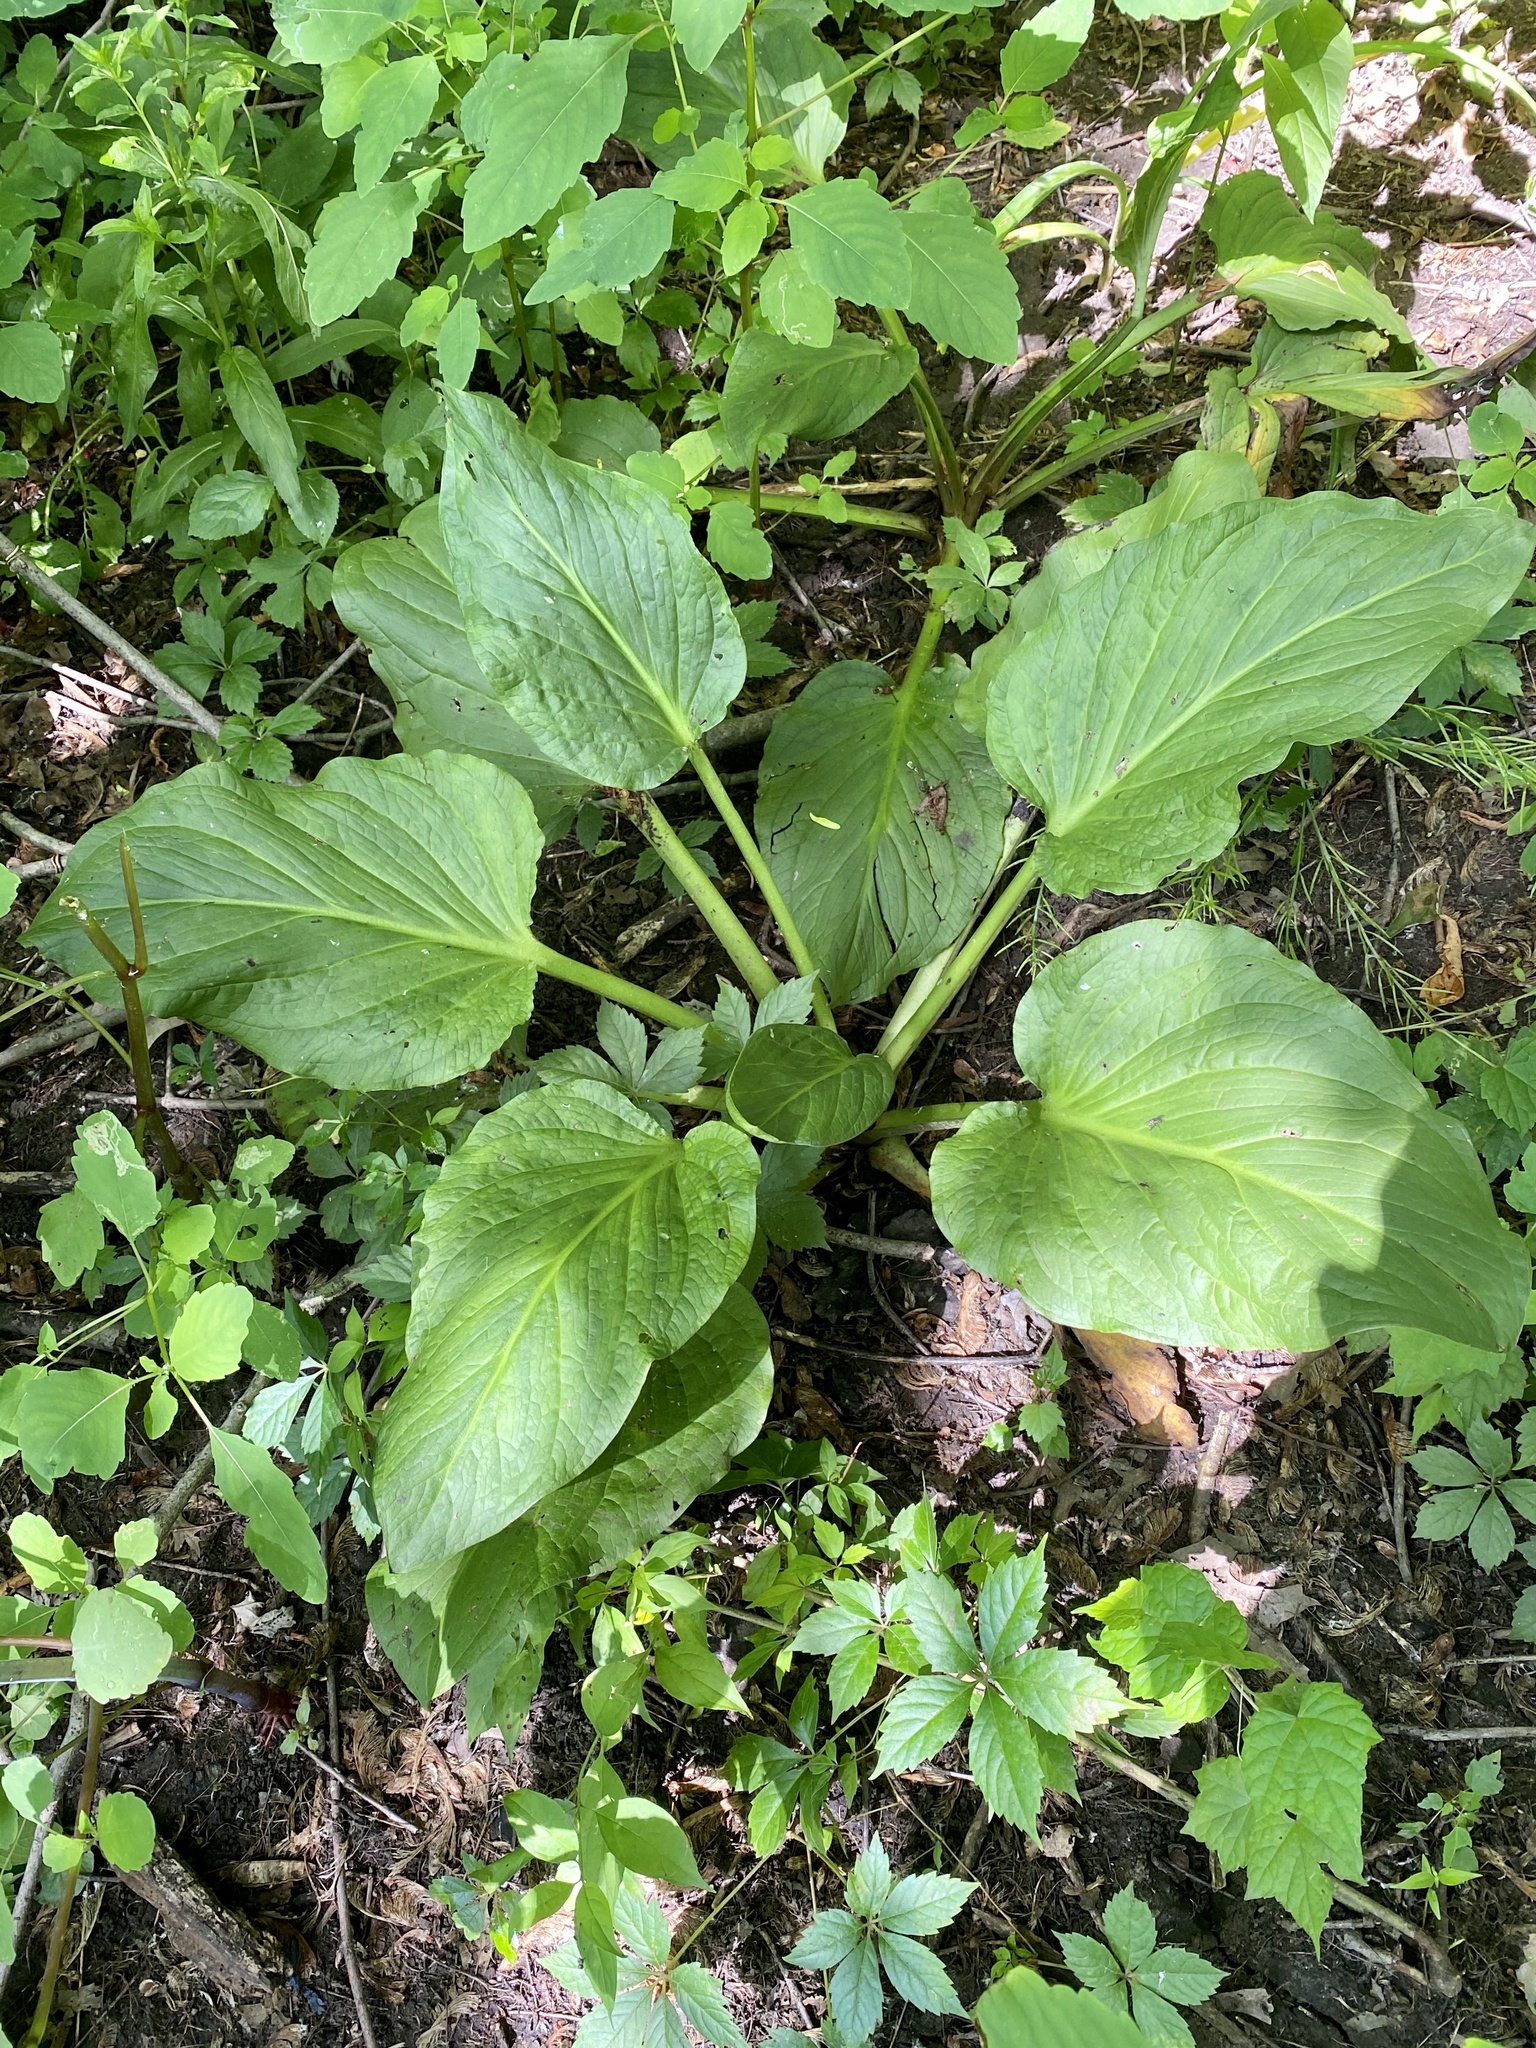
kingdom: Plantae
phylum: Tracheophyta
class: Liliopsida
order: Alismatales
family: Araceae
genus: Symplocarpus
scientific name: Symplocarpus foetidus
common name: Eastern skunk cabbage
